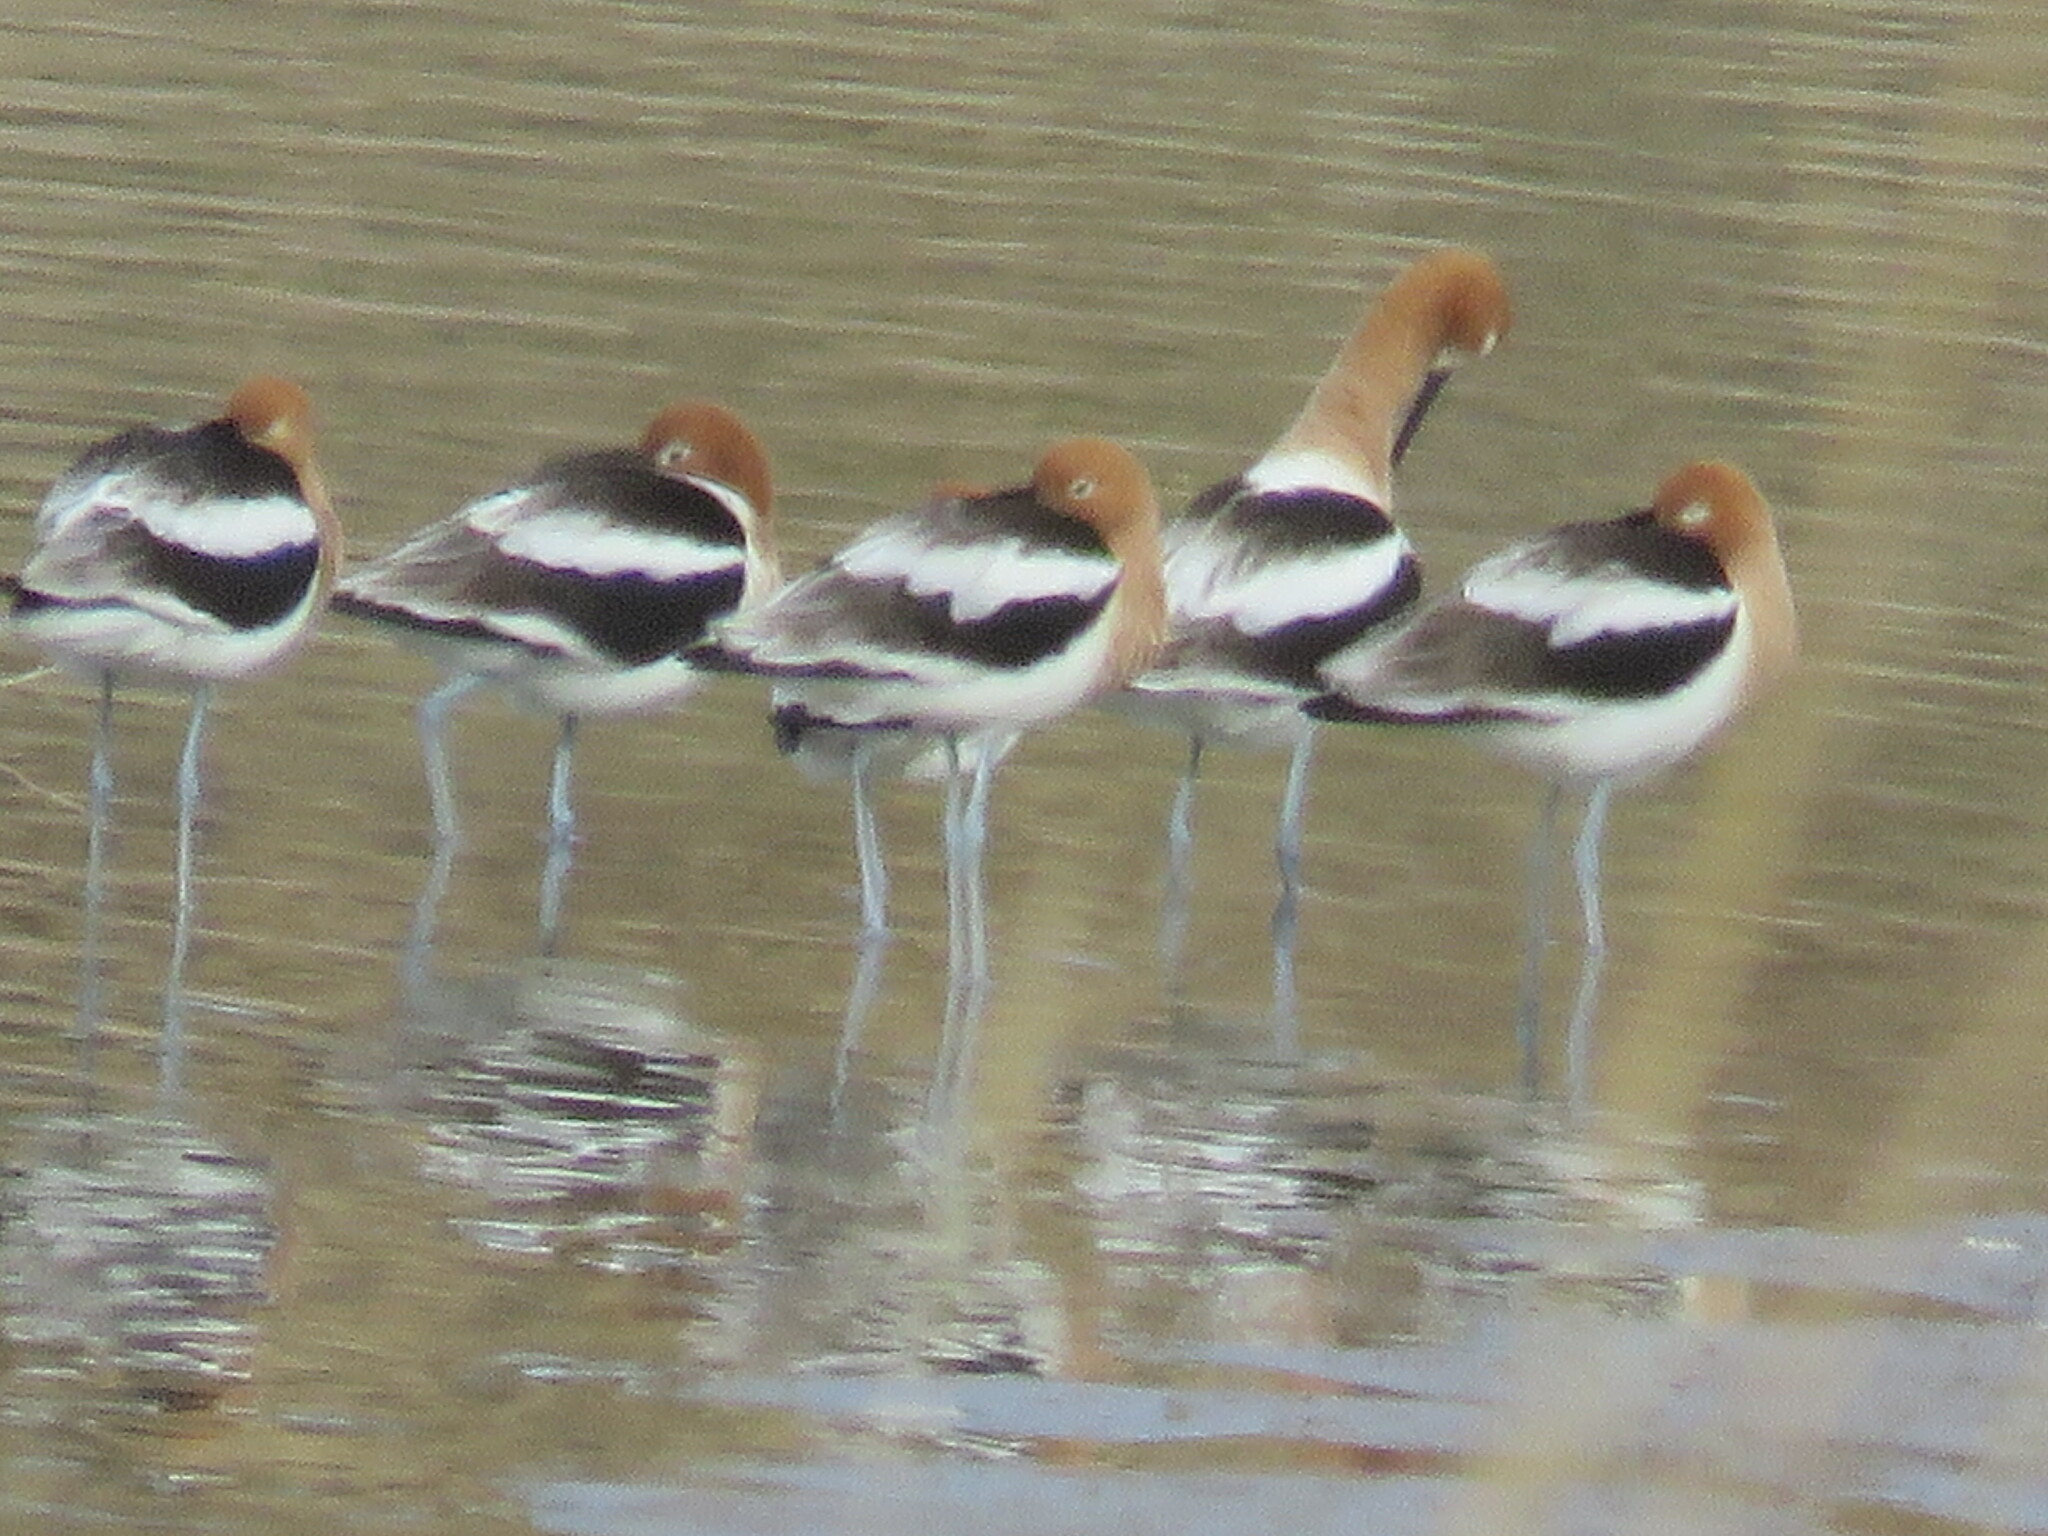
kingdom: Animalia
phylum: Chordata
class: Aves
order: Charadriiformes
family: Recurvirostridae
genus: Recurvirostra
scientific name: Recurvirostra americana
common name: American avocet
